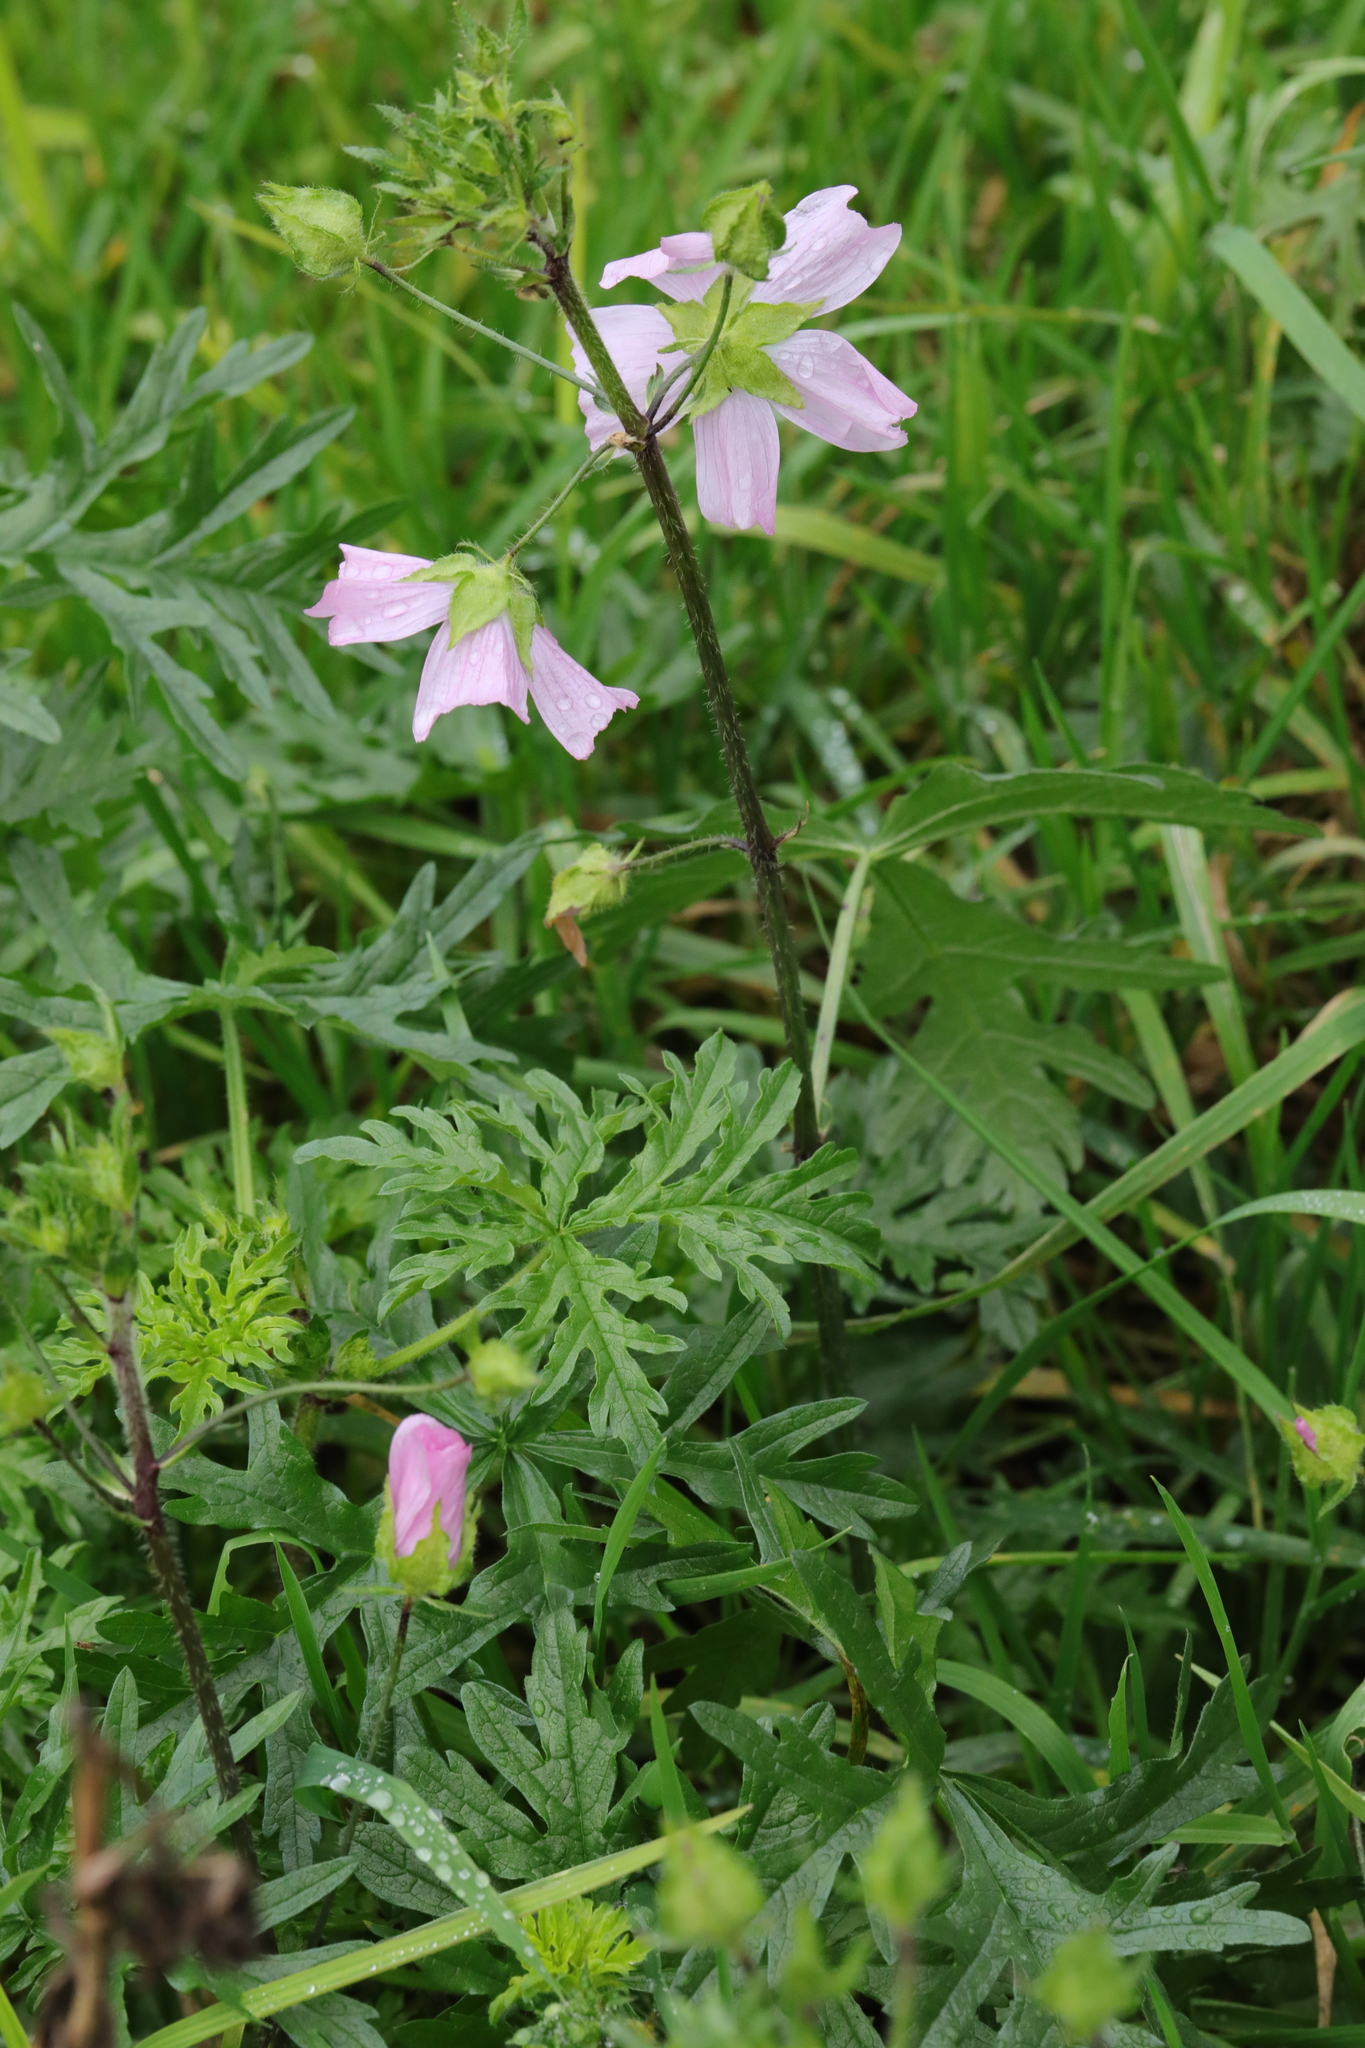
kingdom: Plantae
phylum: Tracheophyta
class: Magnoliopsida
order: Malvales
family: Malvaceae
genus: Malva
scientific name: Malva moschata
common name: Musk mallow
